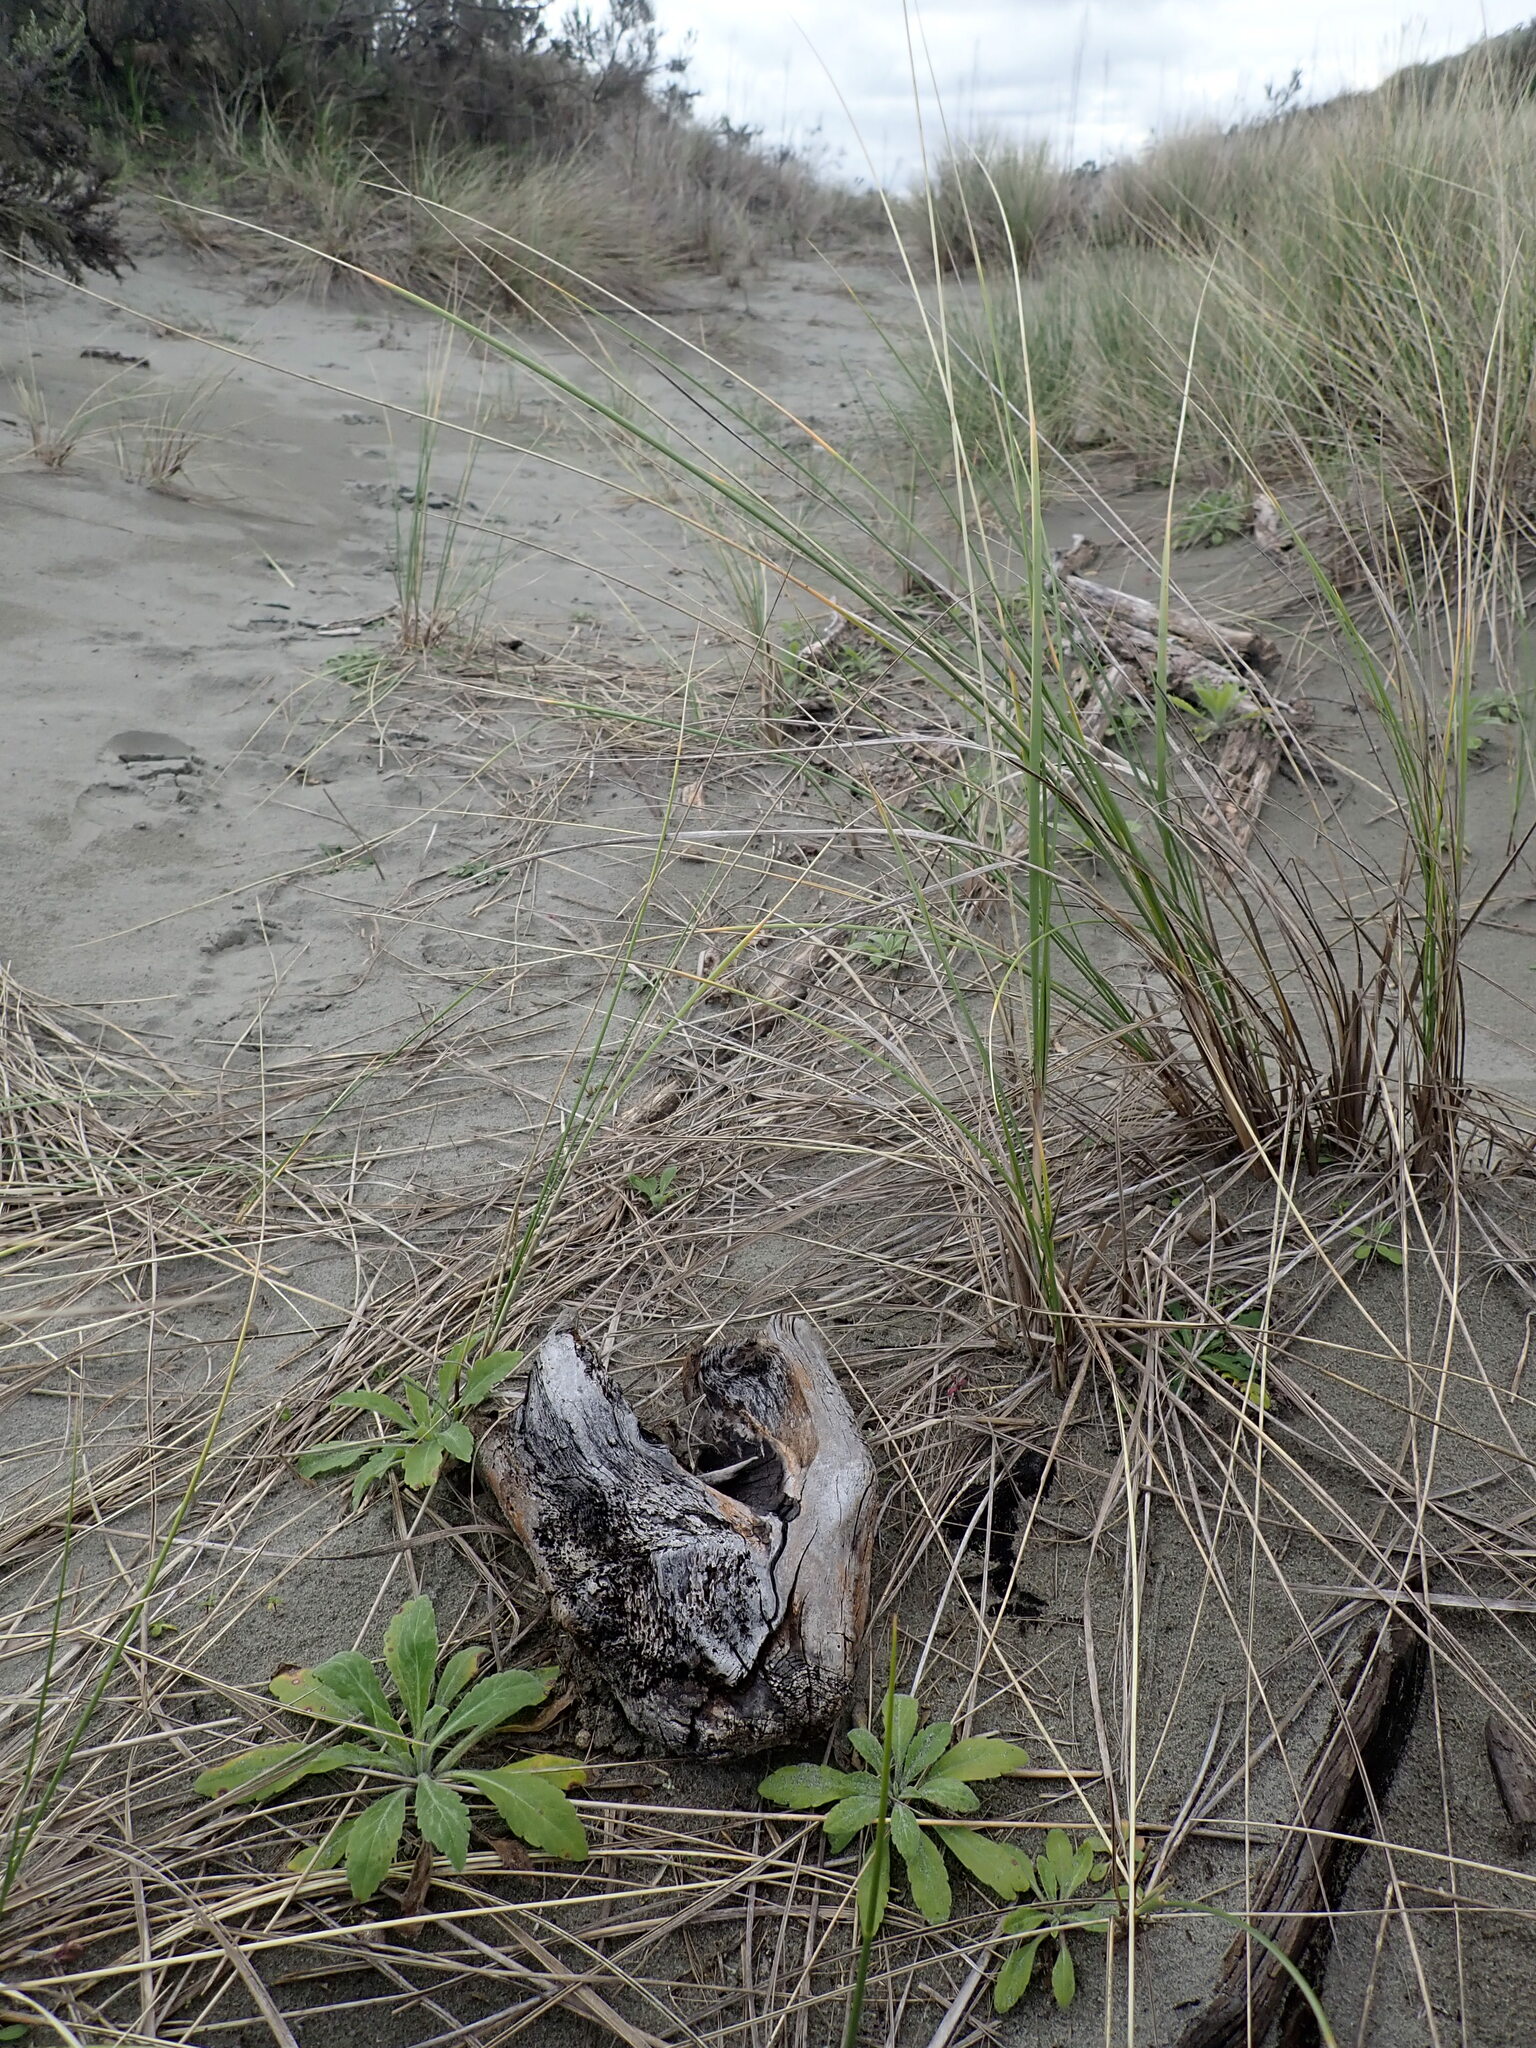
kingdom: Animalia
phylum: Arthropoda
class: Arachnida
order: Araneae
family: Theridiidae
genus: Latrodectus
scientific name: Latrodectus katipo
